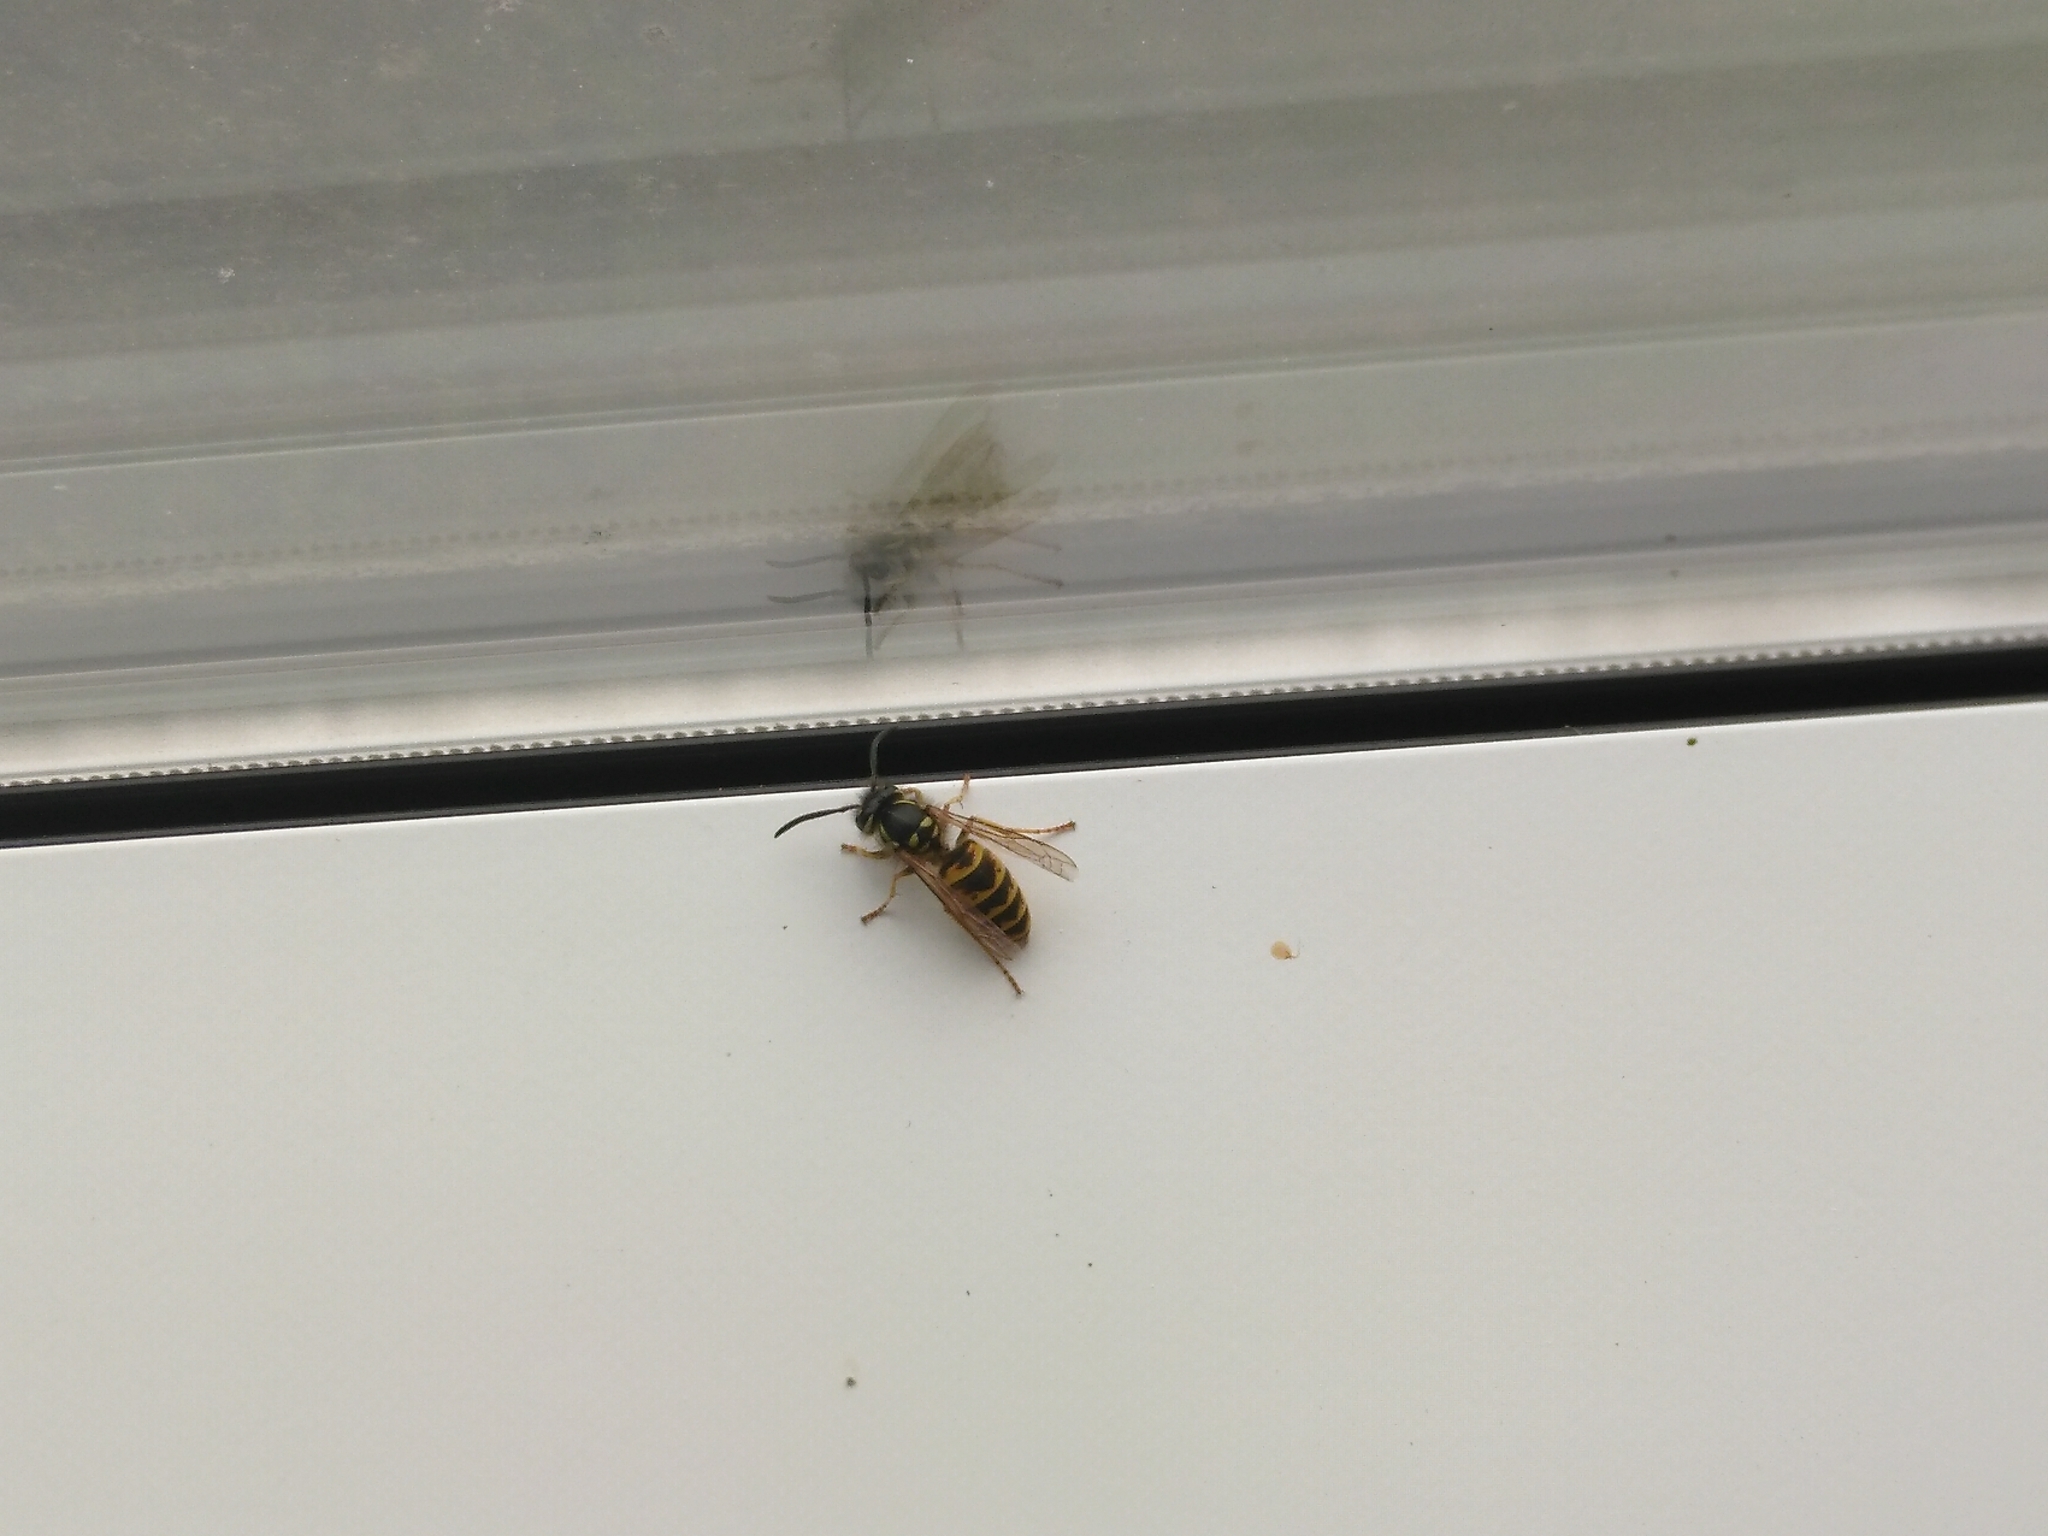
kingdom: Animalia
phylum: Arthropoda
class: Insecta
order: Hymenoptera
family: Vespidae
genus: Vespula
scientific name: Vespula vulgaris
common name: Common wasp
